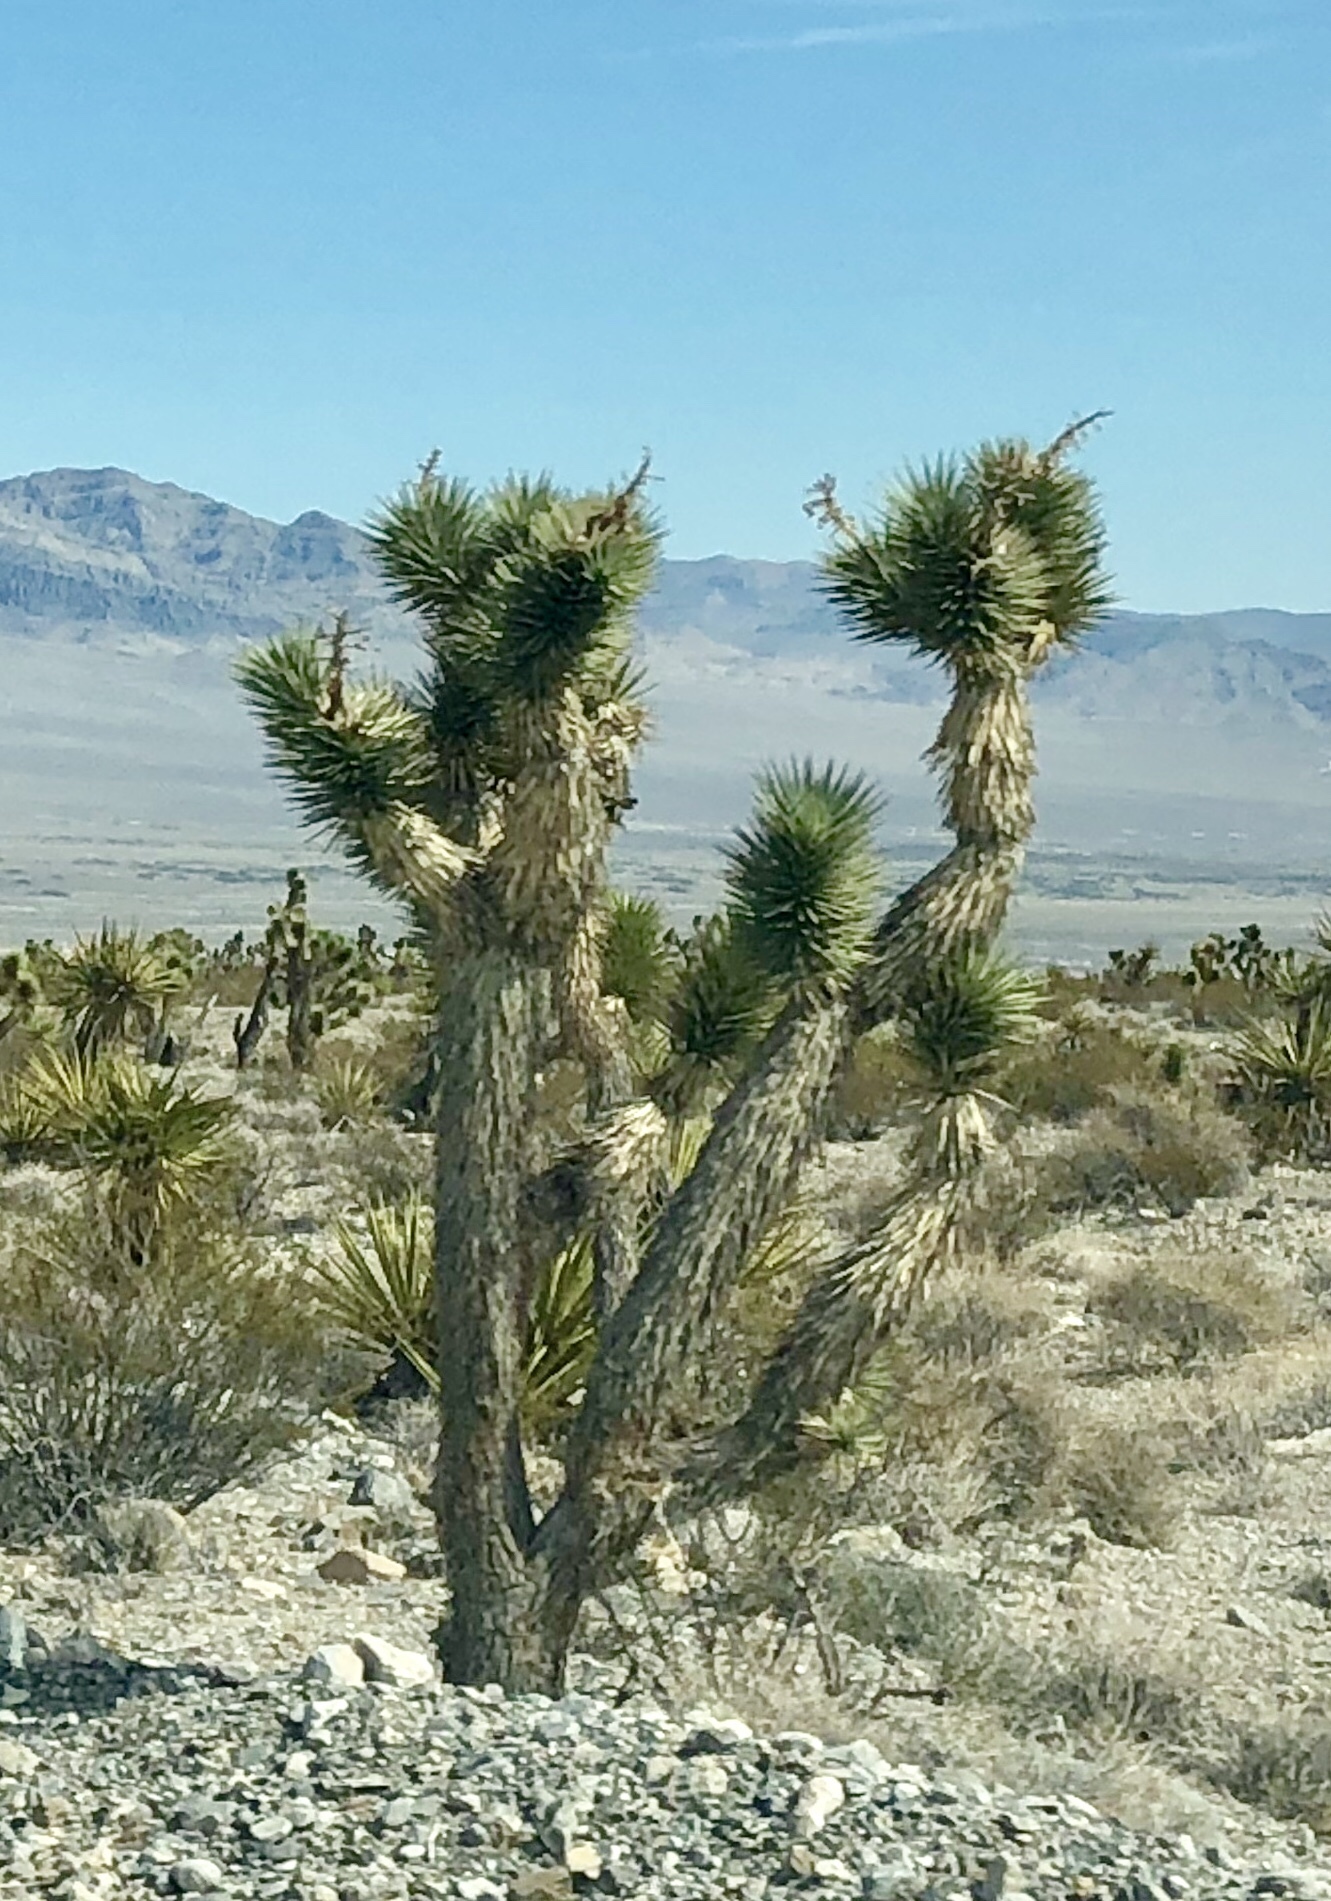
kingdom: Plantae
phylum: Tracheophyta
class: Liliopsida
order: Asparagales
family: Asparagaceae
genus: Yucca
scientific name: Yucca brevifolia
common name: Joshua tree
